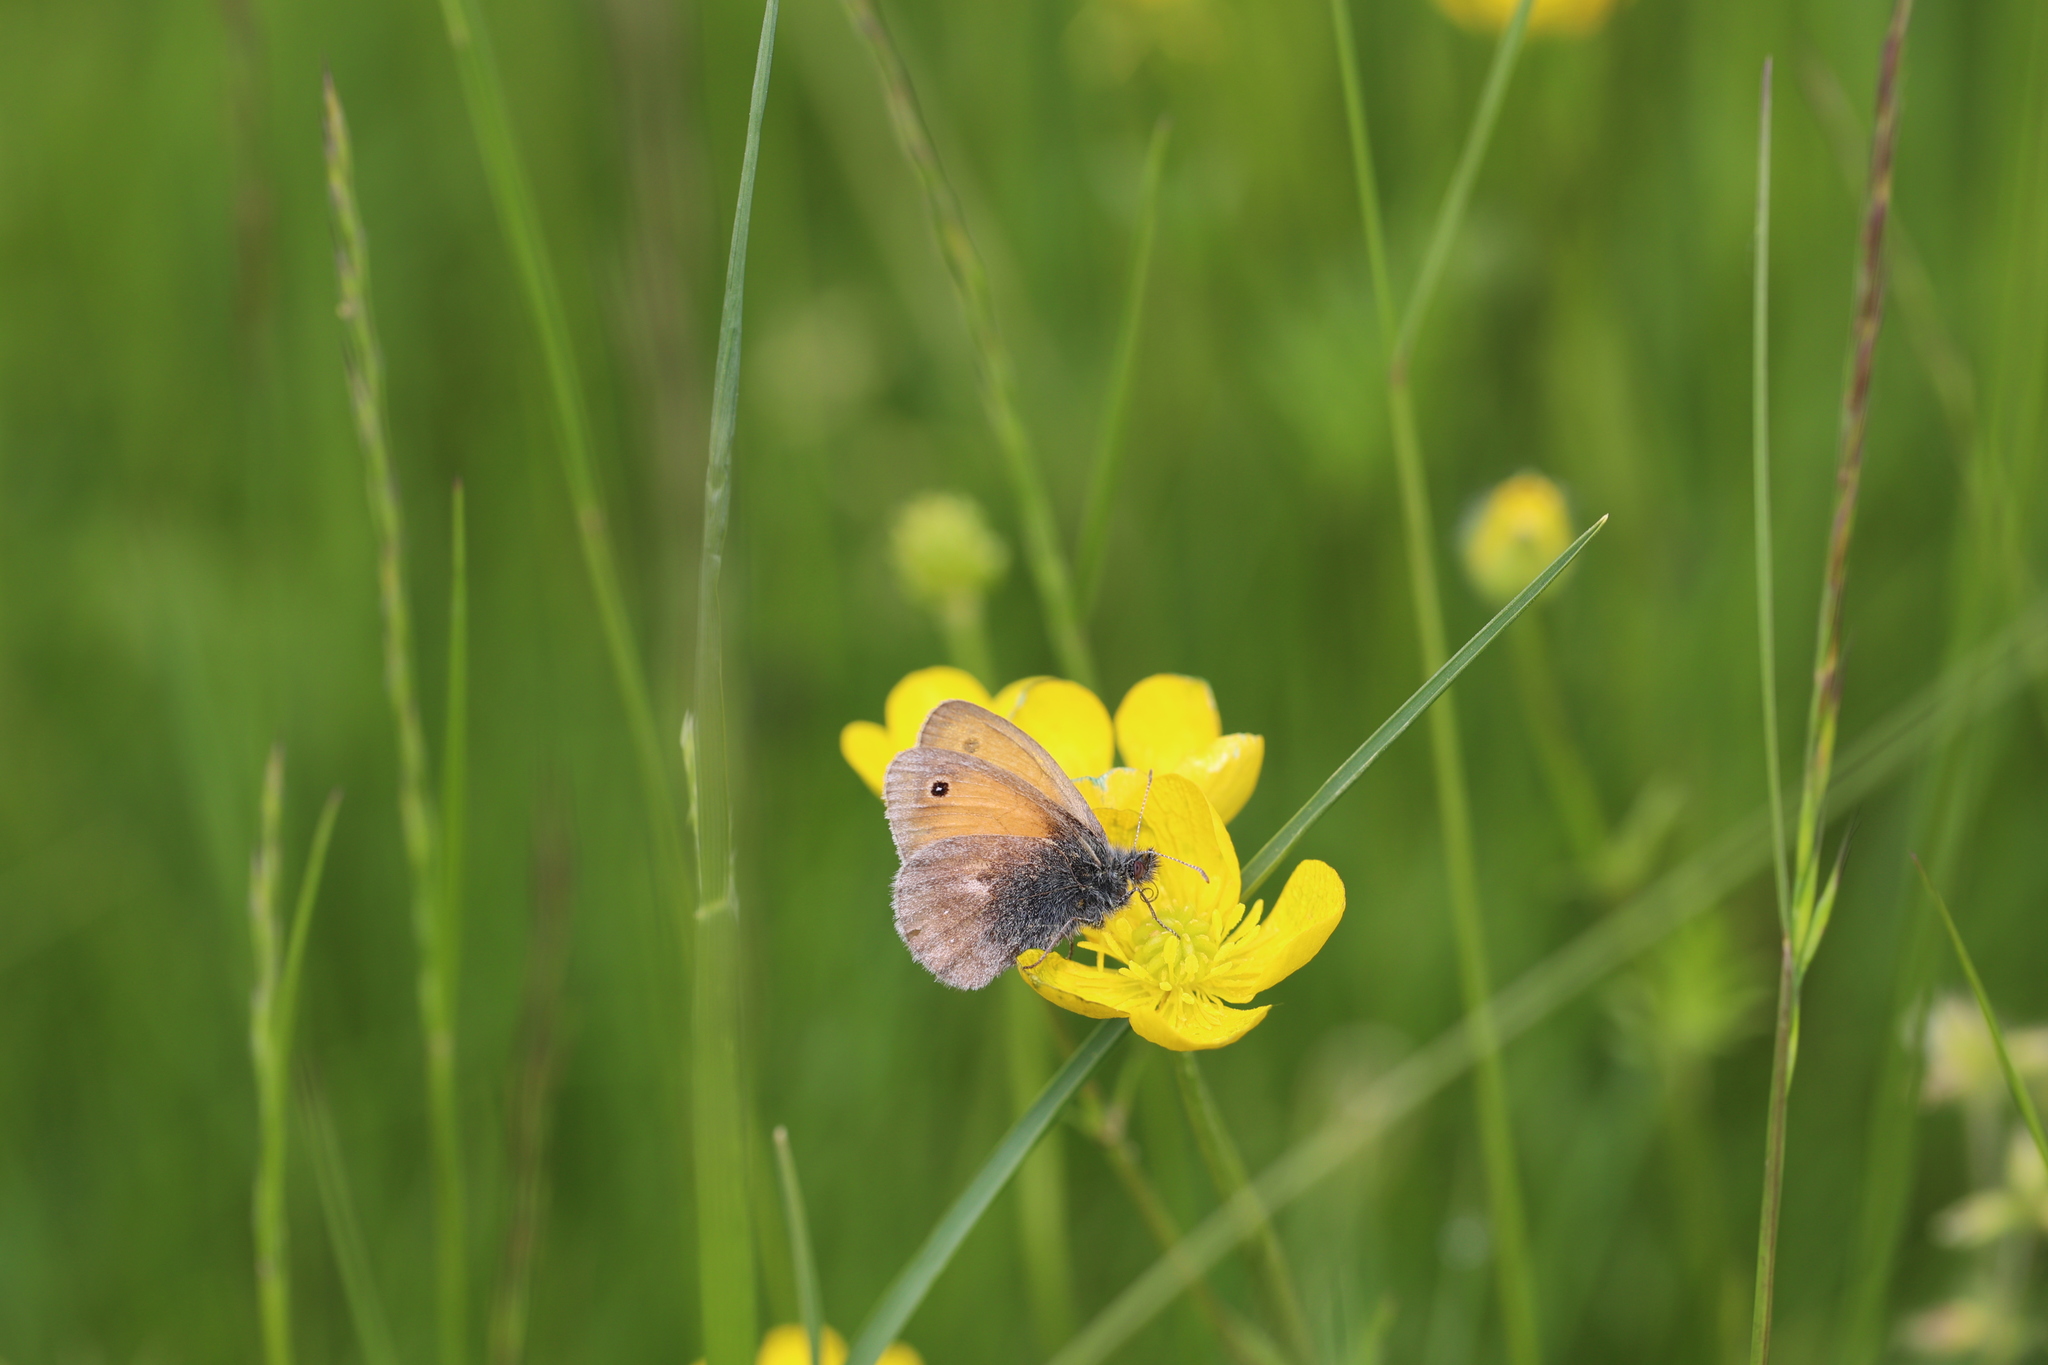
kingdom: Animalia
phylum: Arthropoda
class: Insecta
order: Lepidoptera
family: Nymphalidae
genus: Coenonympha
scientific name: Coenonympha pamphilus
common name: Small heath
